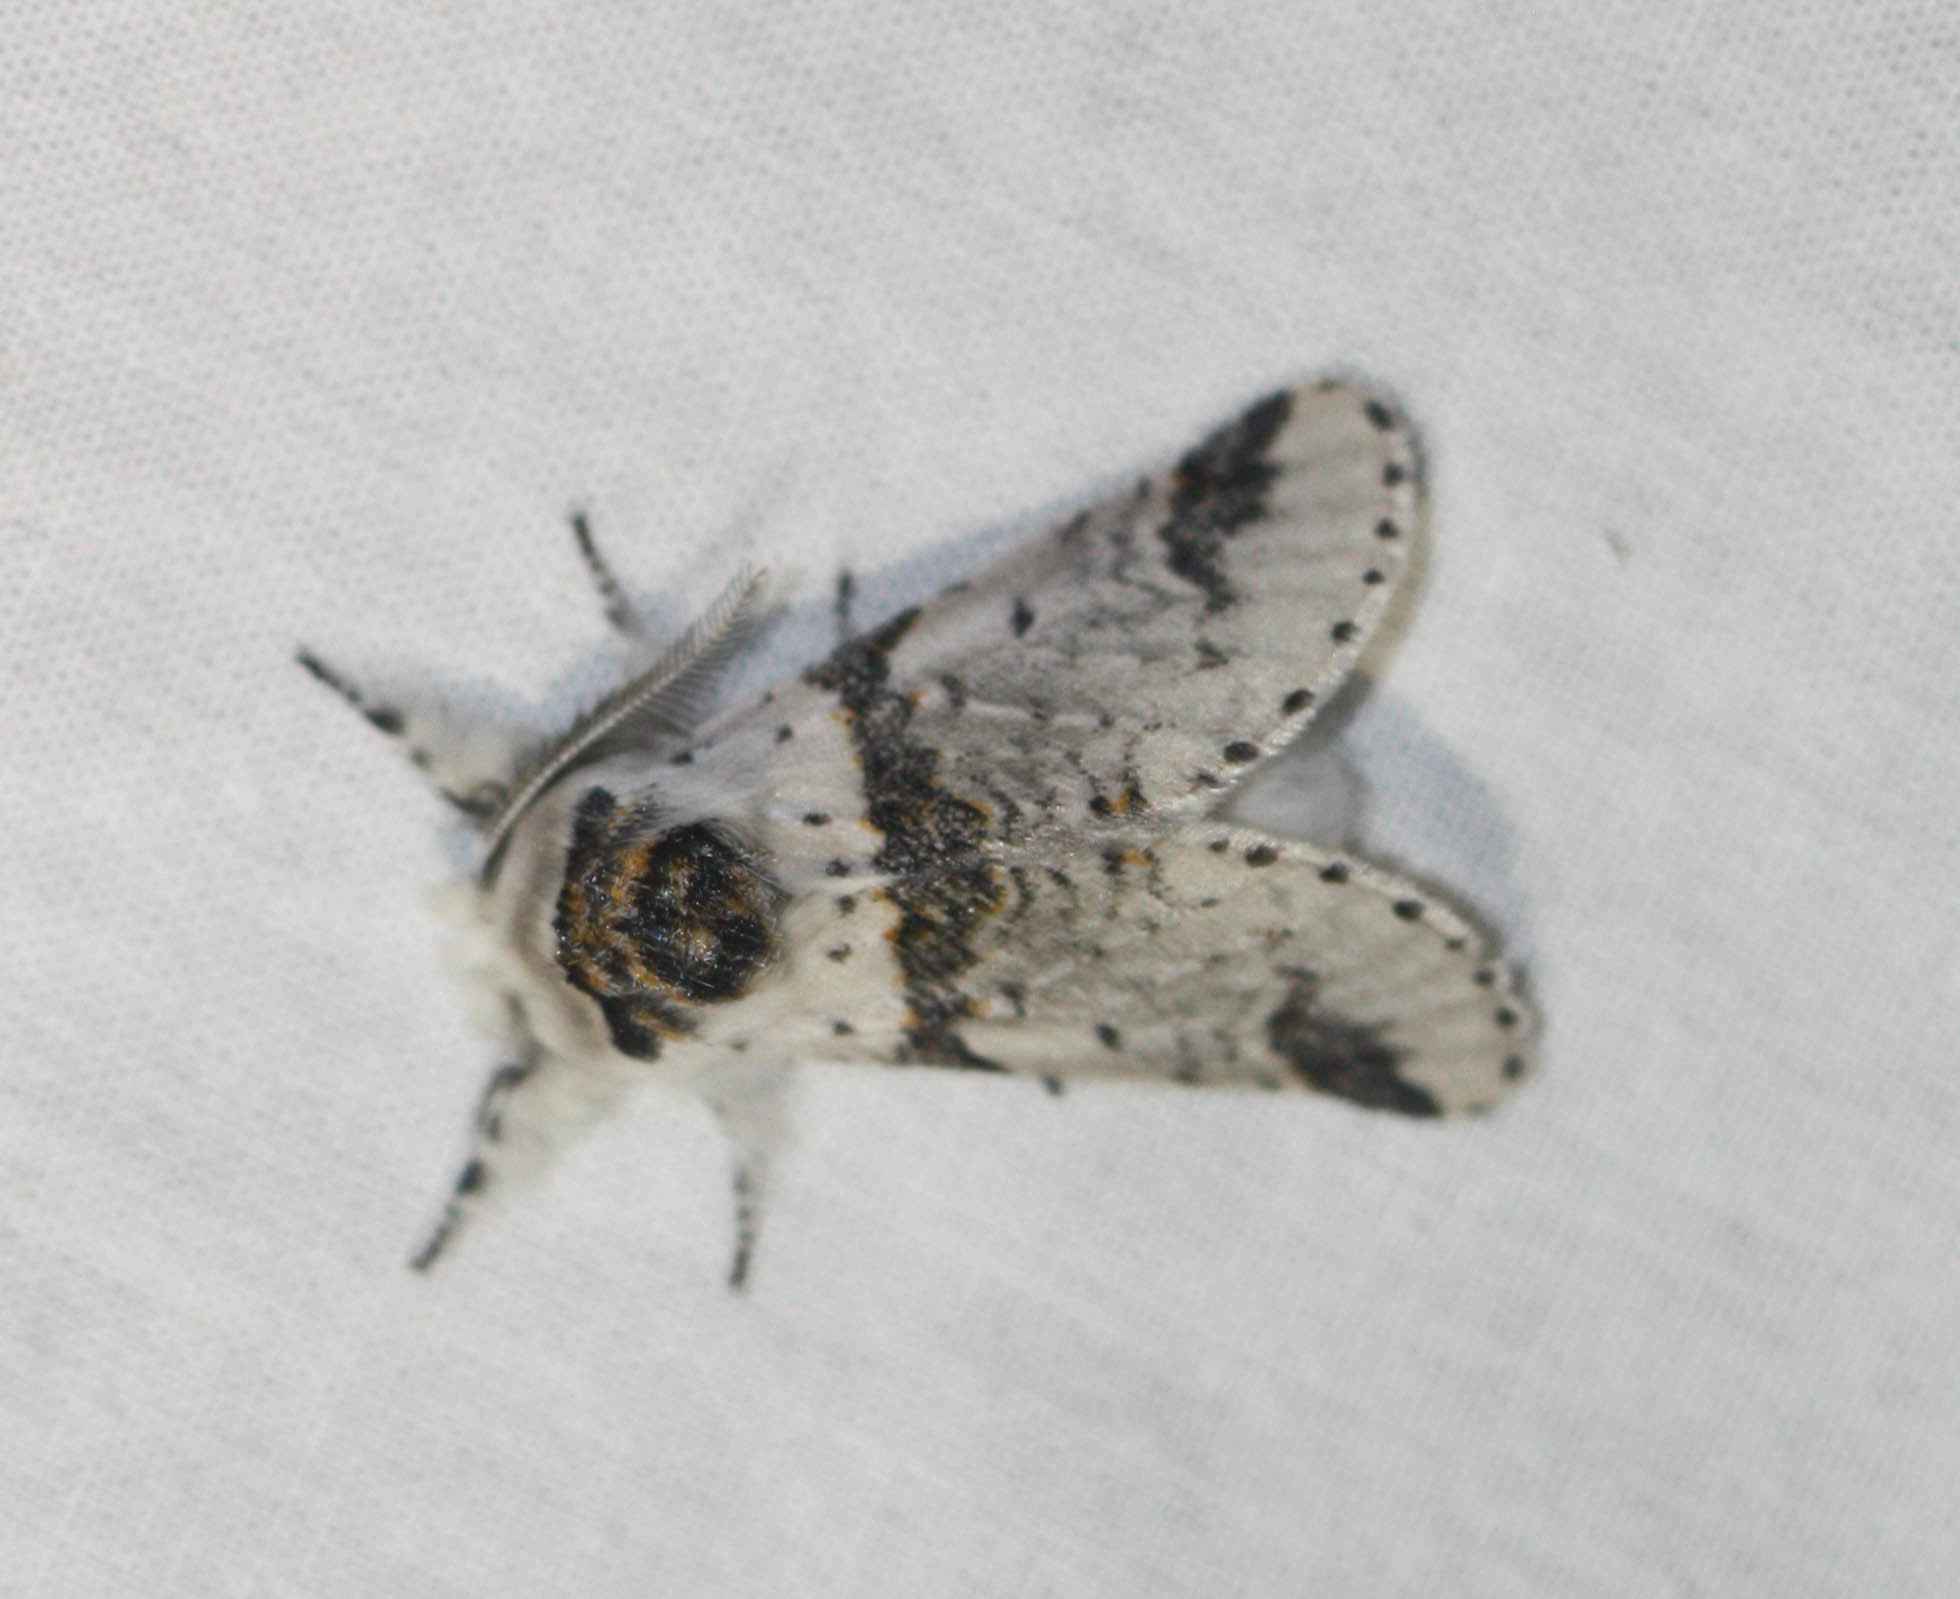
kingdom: Animalia
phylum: Arthropoda
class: Insecta
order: Lepidoptera
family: Notodontidae
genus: Furcula
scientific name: Furcula scolopendrina
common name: Zigzag furcula moth
